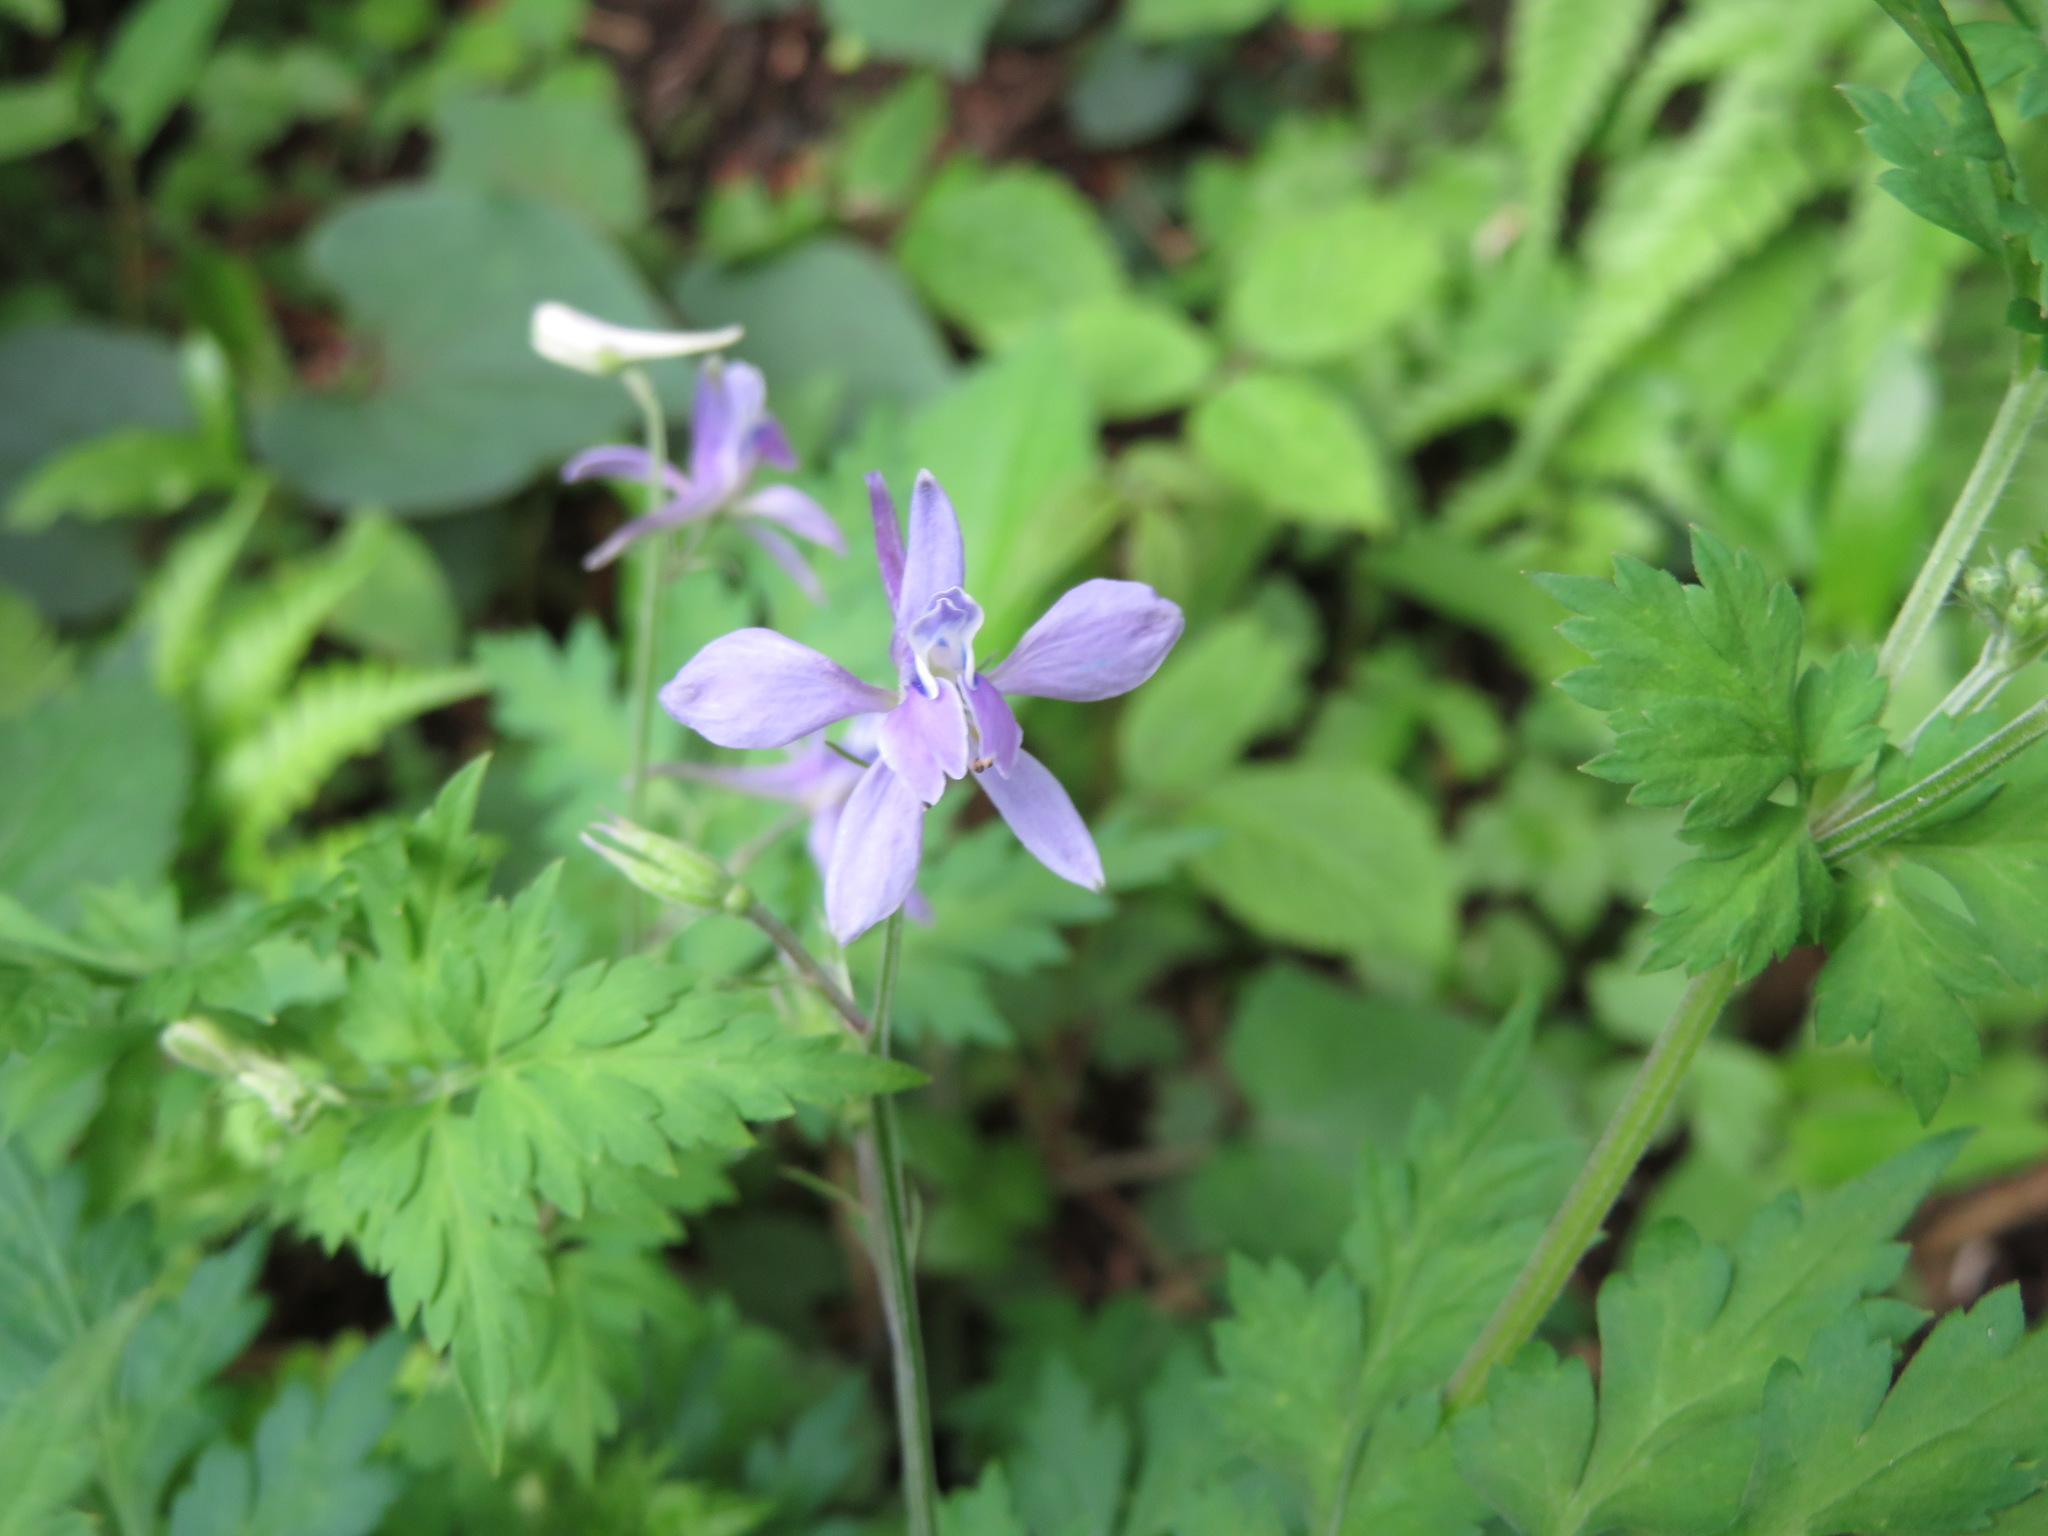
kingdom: Plantae
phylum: Tracheophyta
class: Magnoliopsida
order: Ranunculales
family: Ranunculaceae
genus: Delphinium
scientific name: Delphinium anthriscifolium
